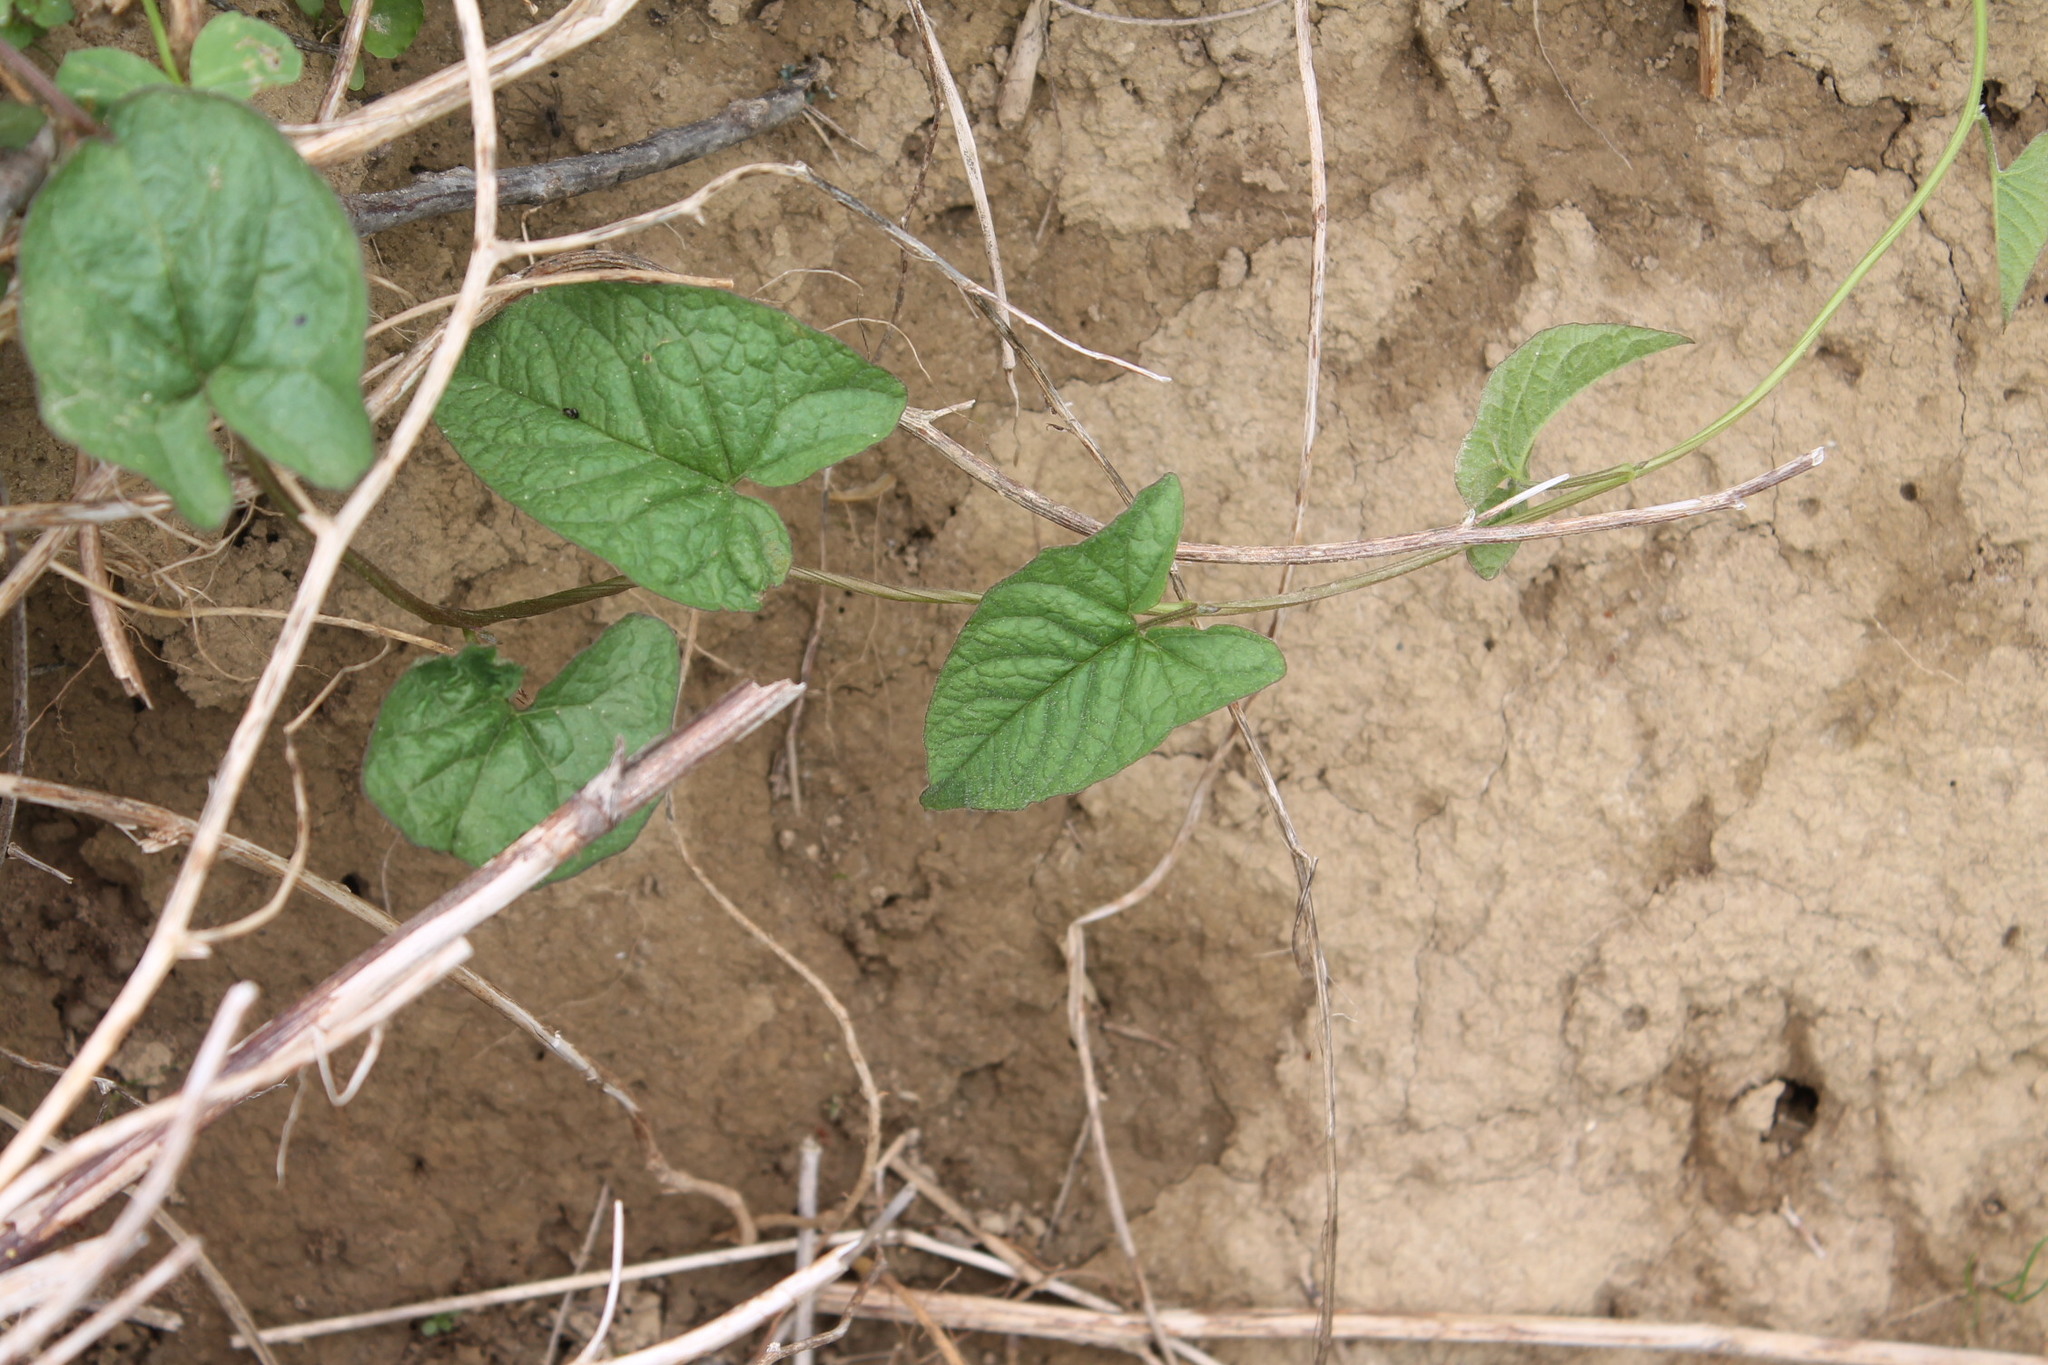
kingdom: Plantae
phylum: Tracheophyta
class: Magnoliopsida
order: Solanales
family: Convolvulaceae
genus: Calystegia
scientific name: Calystegia sepium
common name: Hedge bindweed
